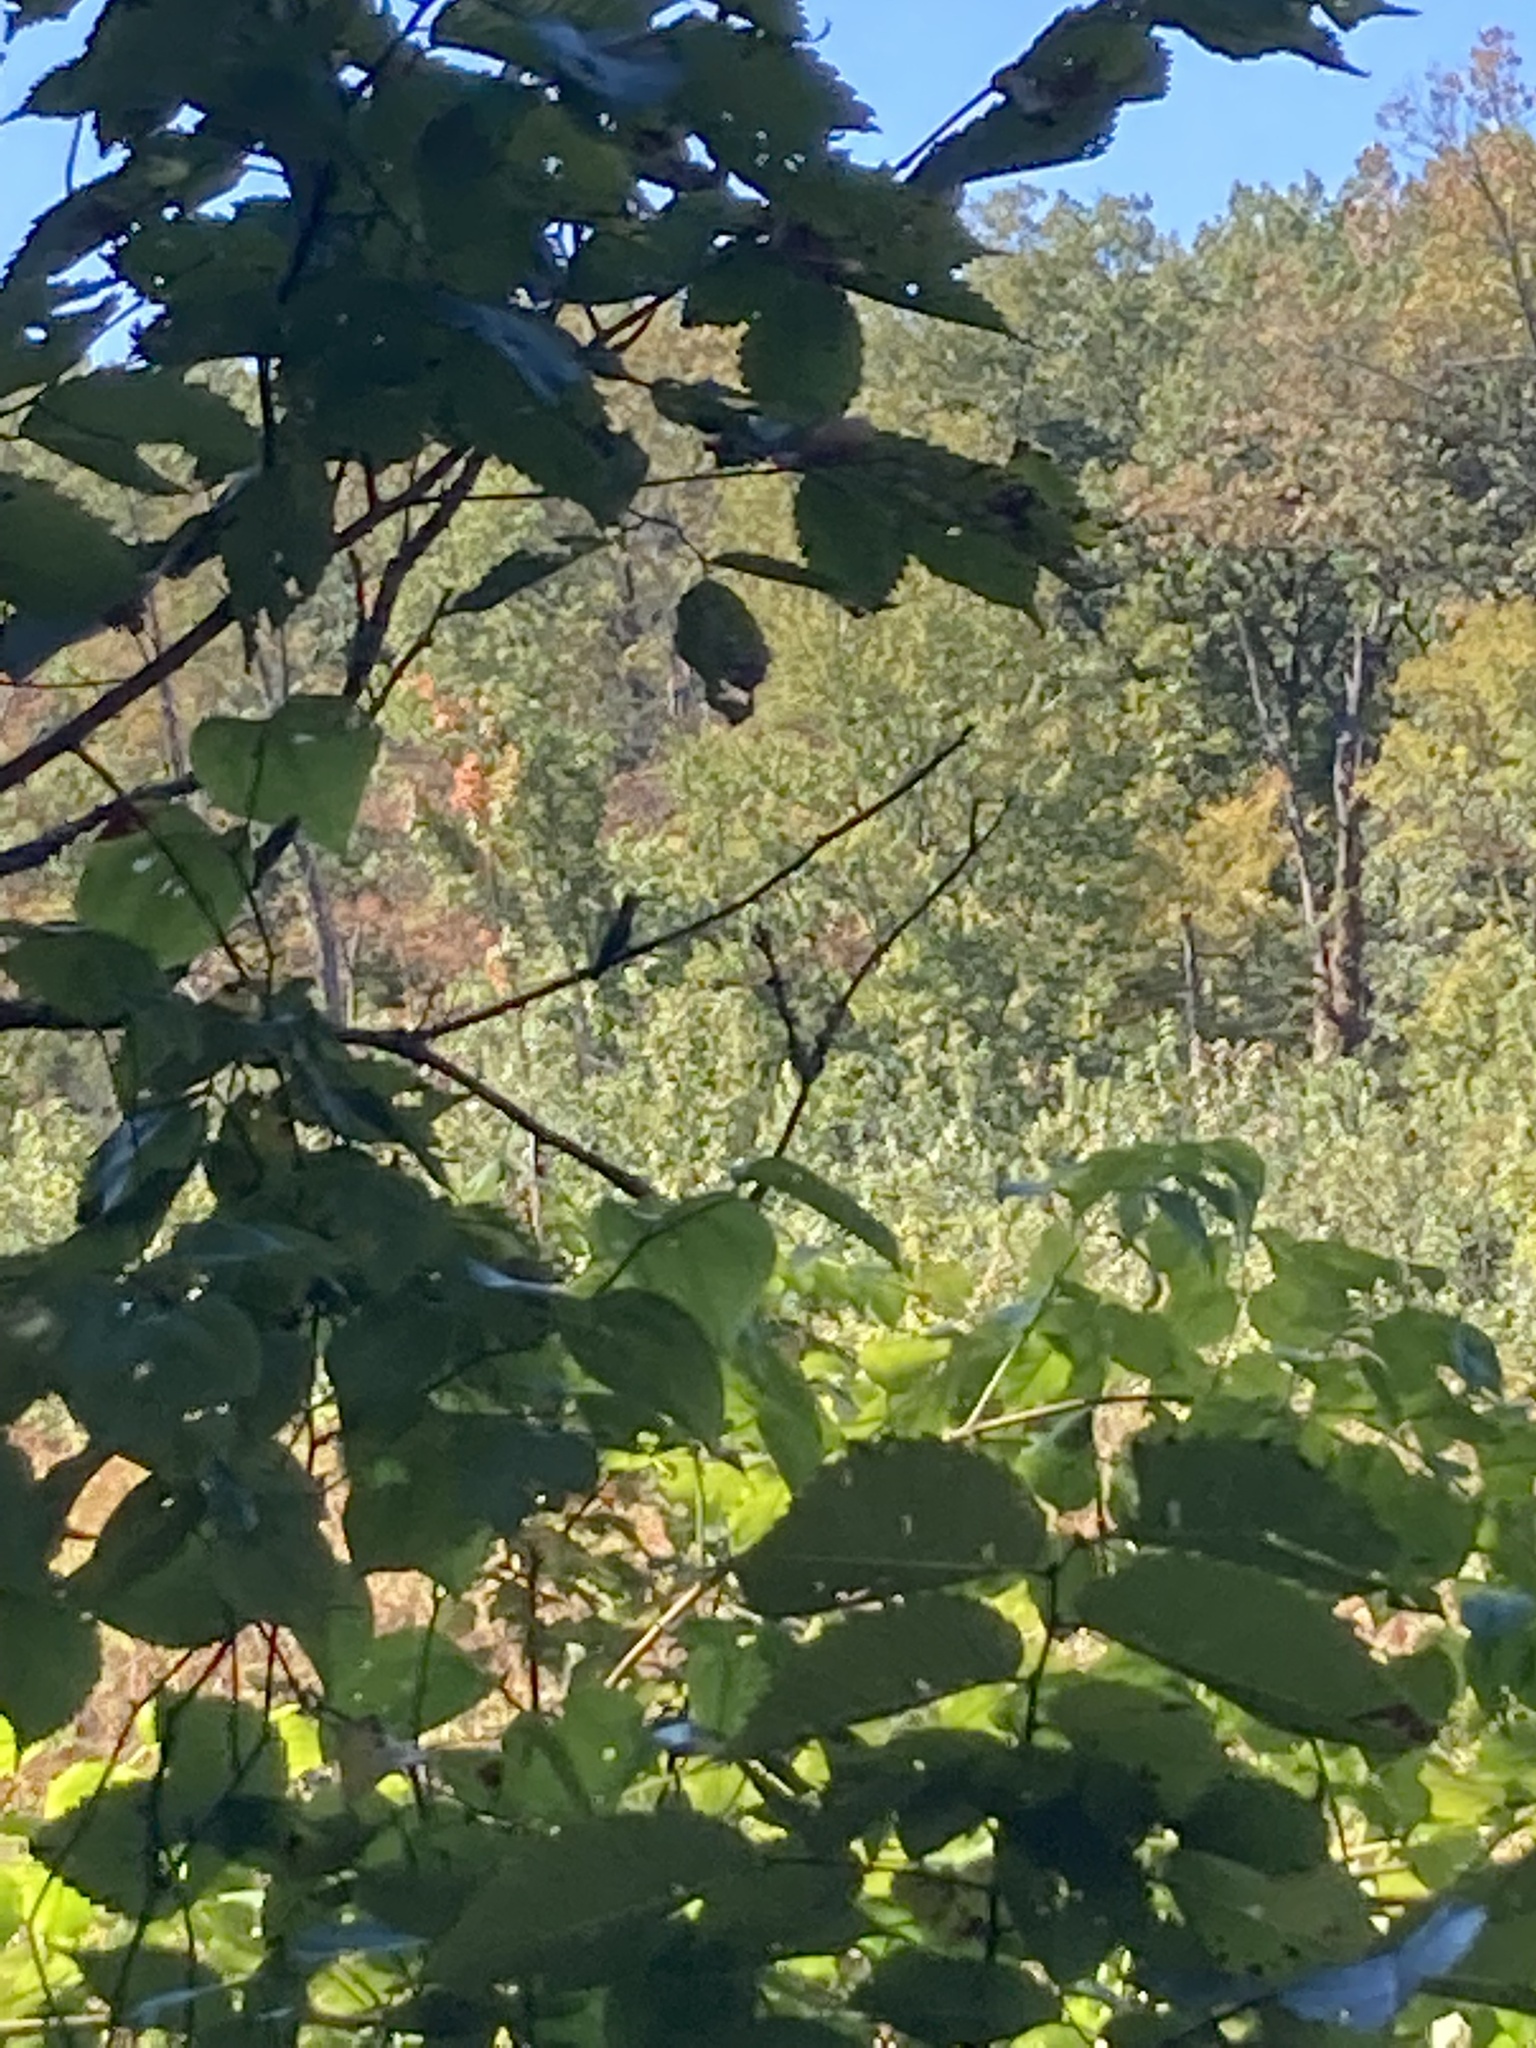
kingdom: Animalia
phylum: Chordata
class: Aves
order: Apodiformes
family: Trochilidae
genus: Archilochus
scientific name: Archilochus colubris
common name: Ruby-throated hummingbird
